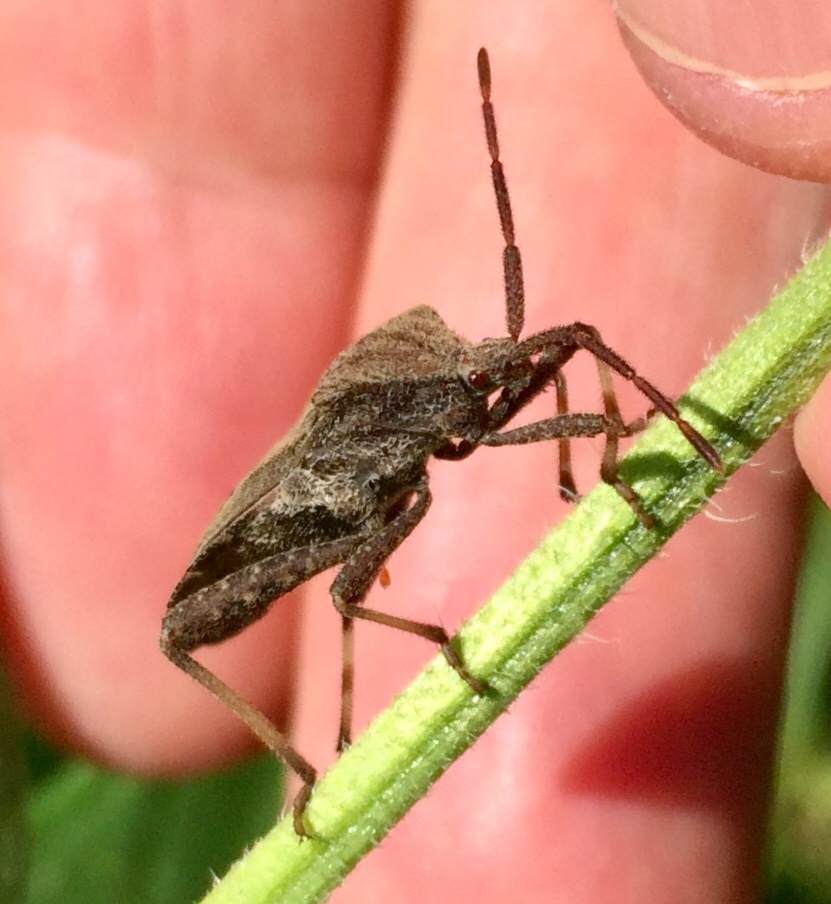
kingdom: Animalia
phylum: Arthropoda
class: Insecta
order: Hemiptera
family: Coreidae
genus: Piezogaster
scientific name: Piezogaster calcarator
